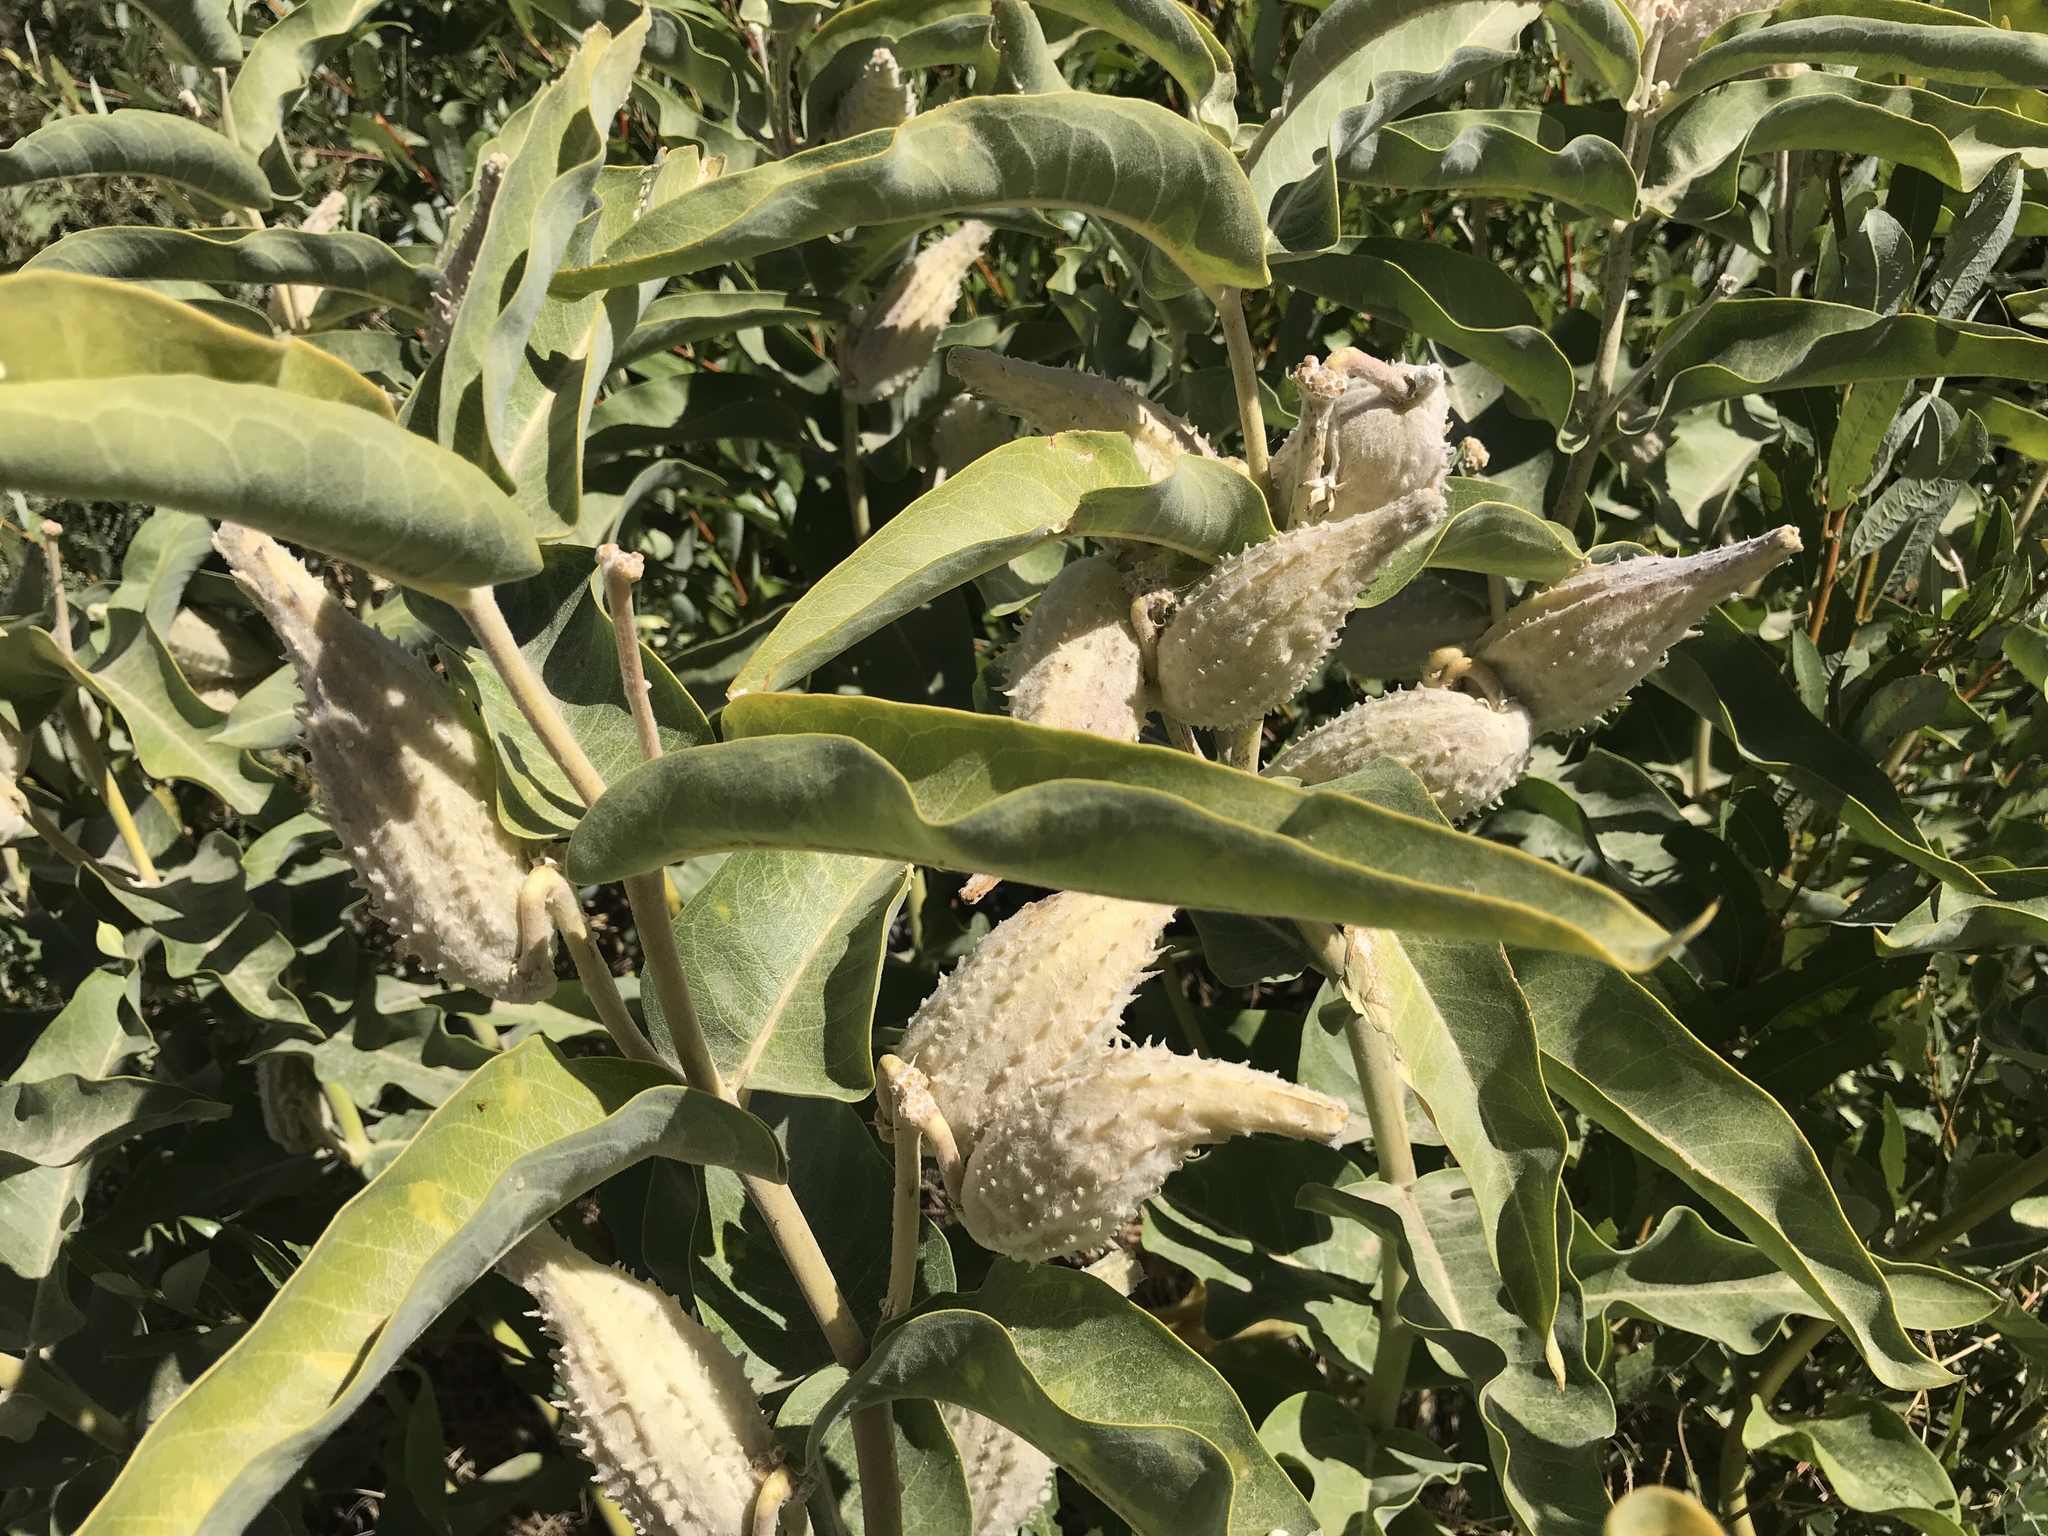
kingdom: Plantae
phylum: Tracheophyta
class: Magnoliopsida
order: Gentianales
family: Apocynaceae
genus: Asclepias
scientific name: Asclepias speciosa
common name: Showy milkweed
